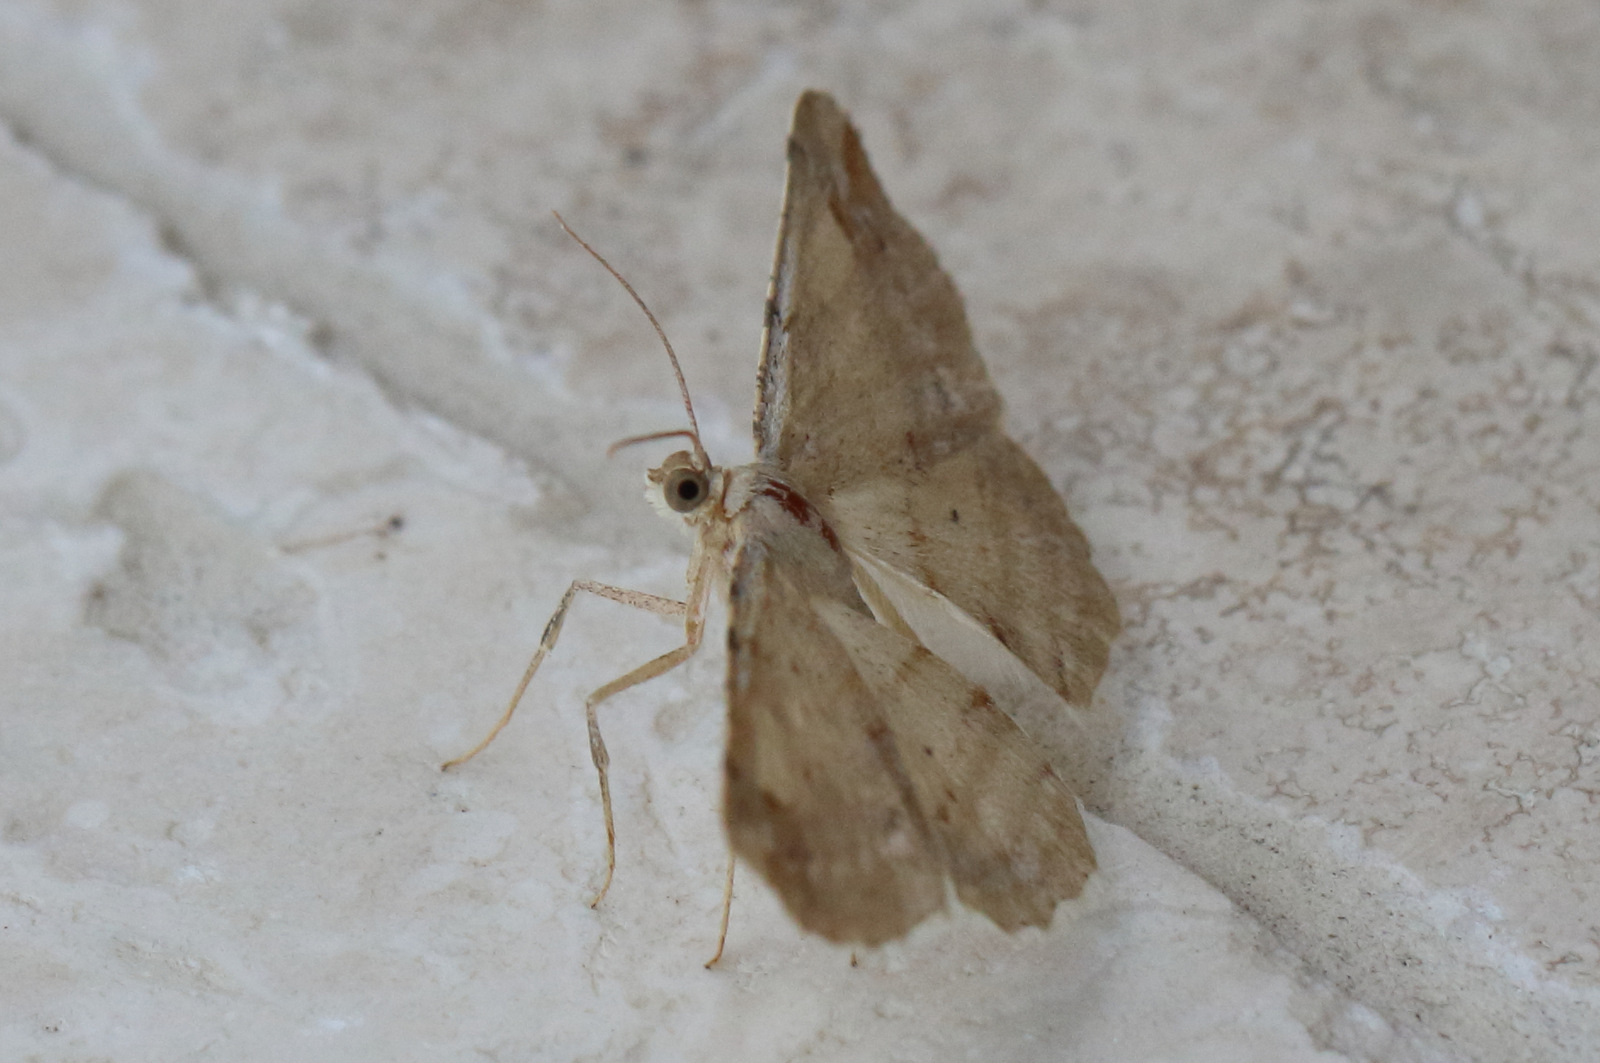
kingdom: Animalia
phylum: Arthropoda
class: Insecta
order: Lepidoptera
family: Geometridae
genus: Syneora
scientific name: Syneora lithina
